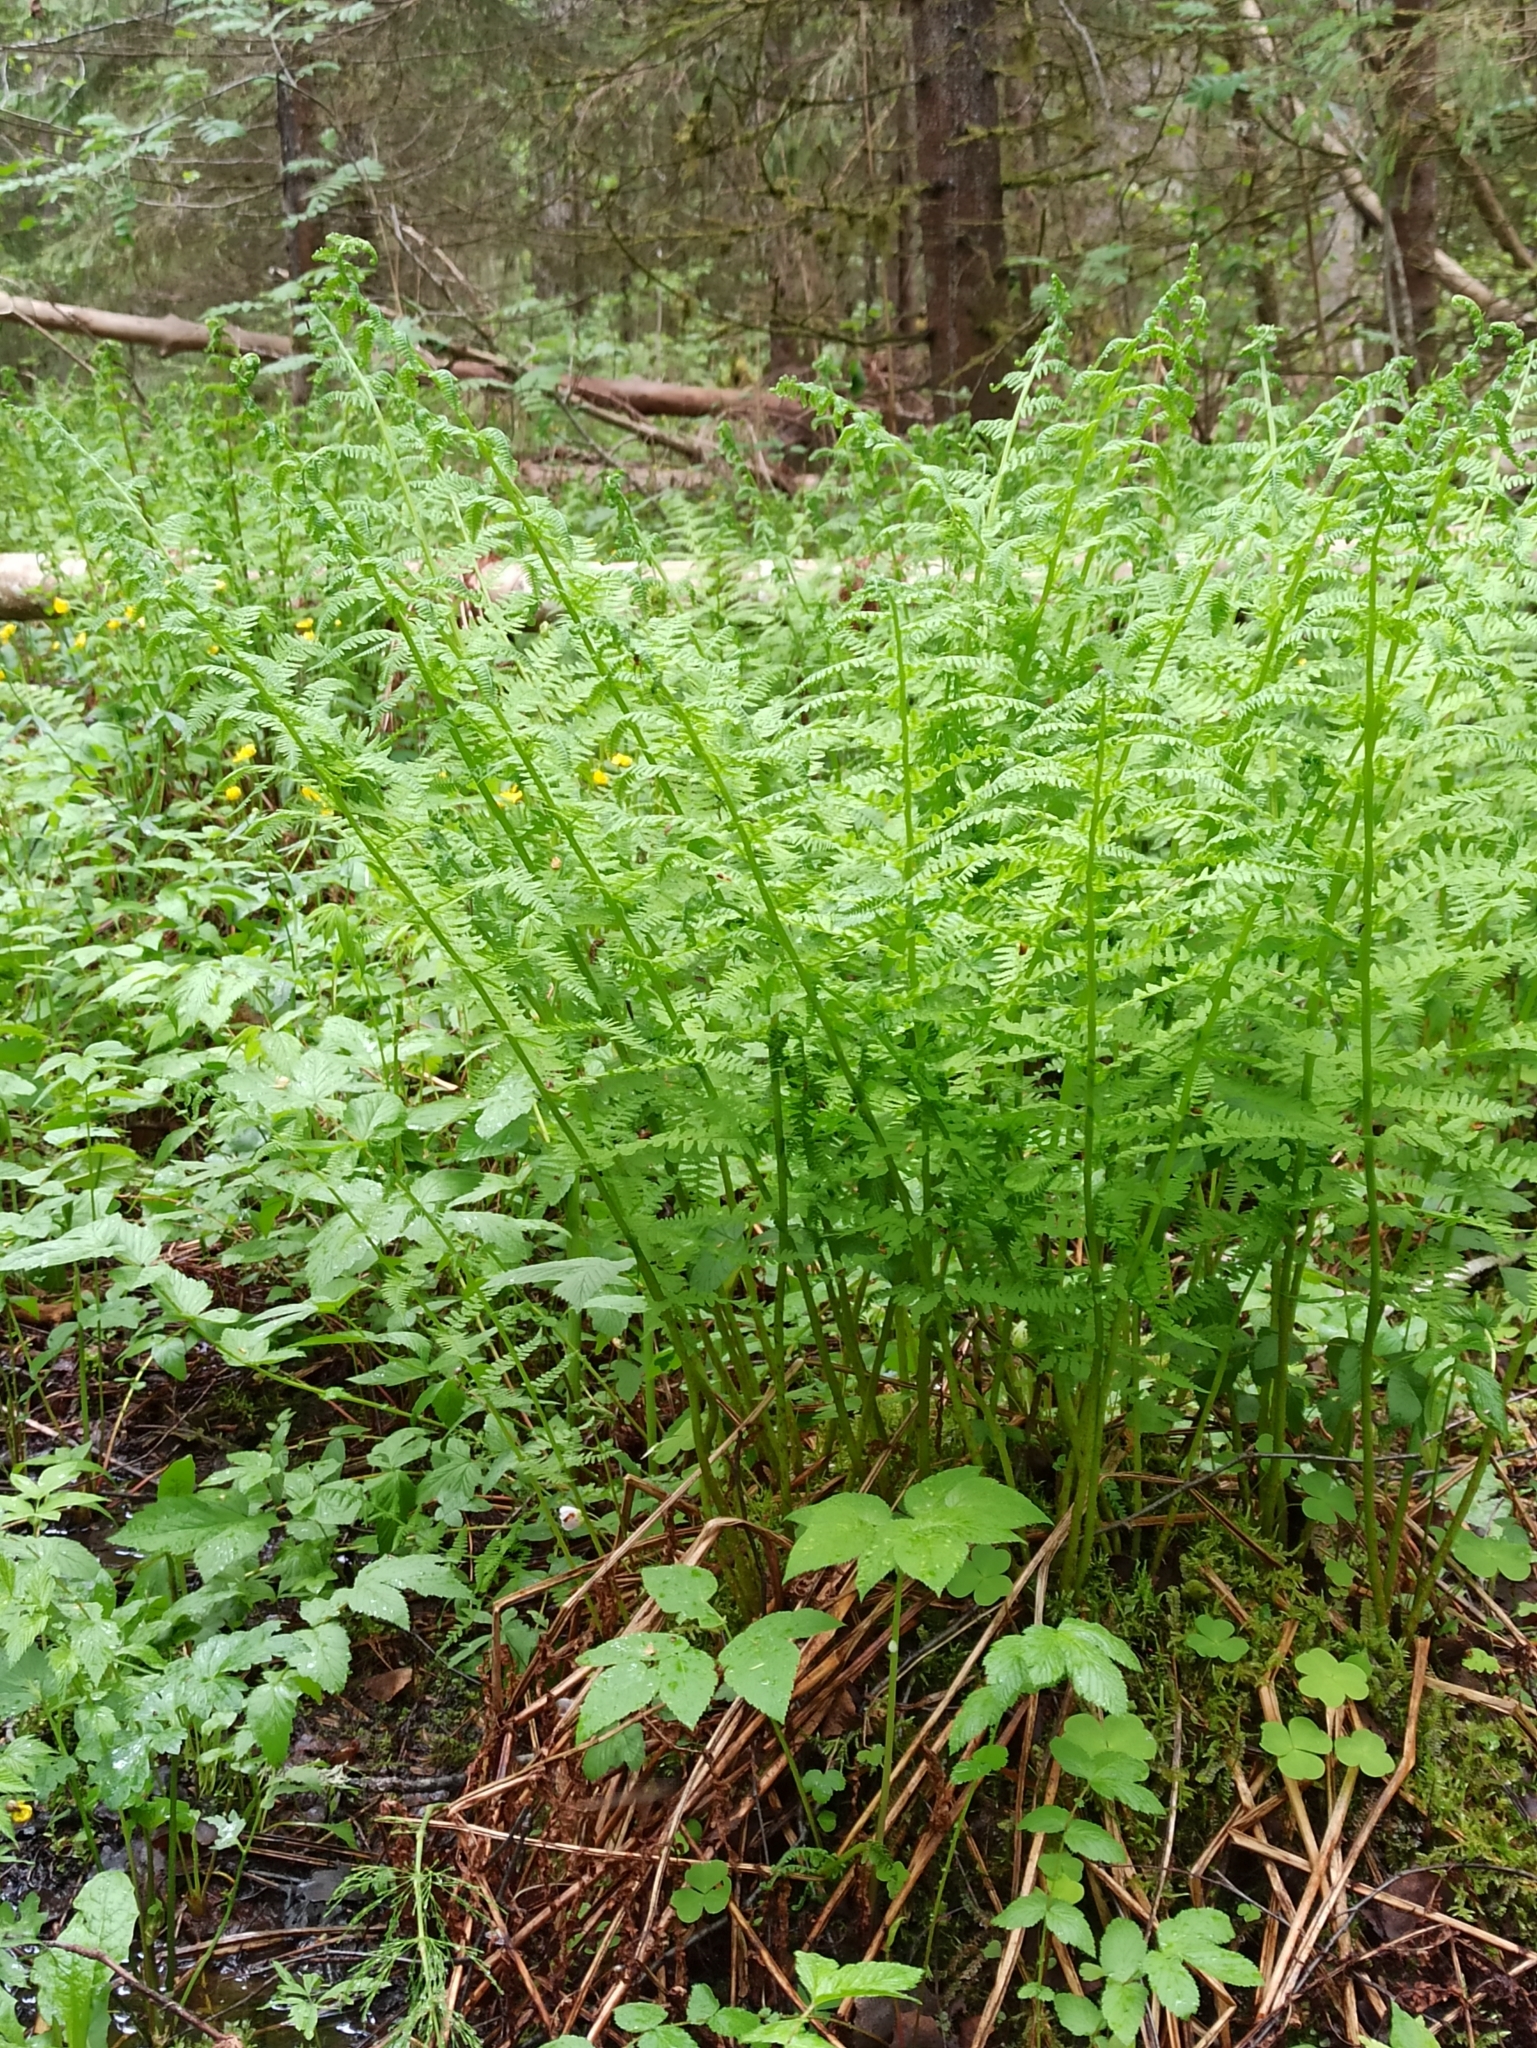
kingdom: Plantae
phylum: Tracheophyta
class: Polypodiopsida
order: Polypodiales
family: Athyriaceae
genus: Athyrium
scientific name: Athyrium filix-femina
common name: Lady fern
